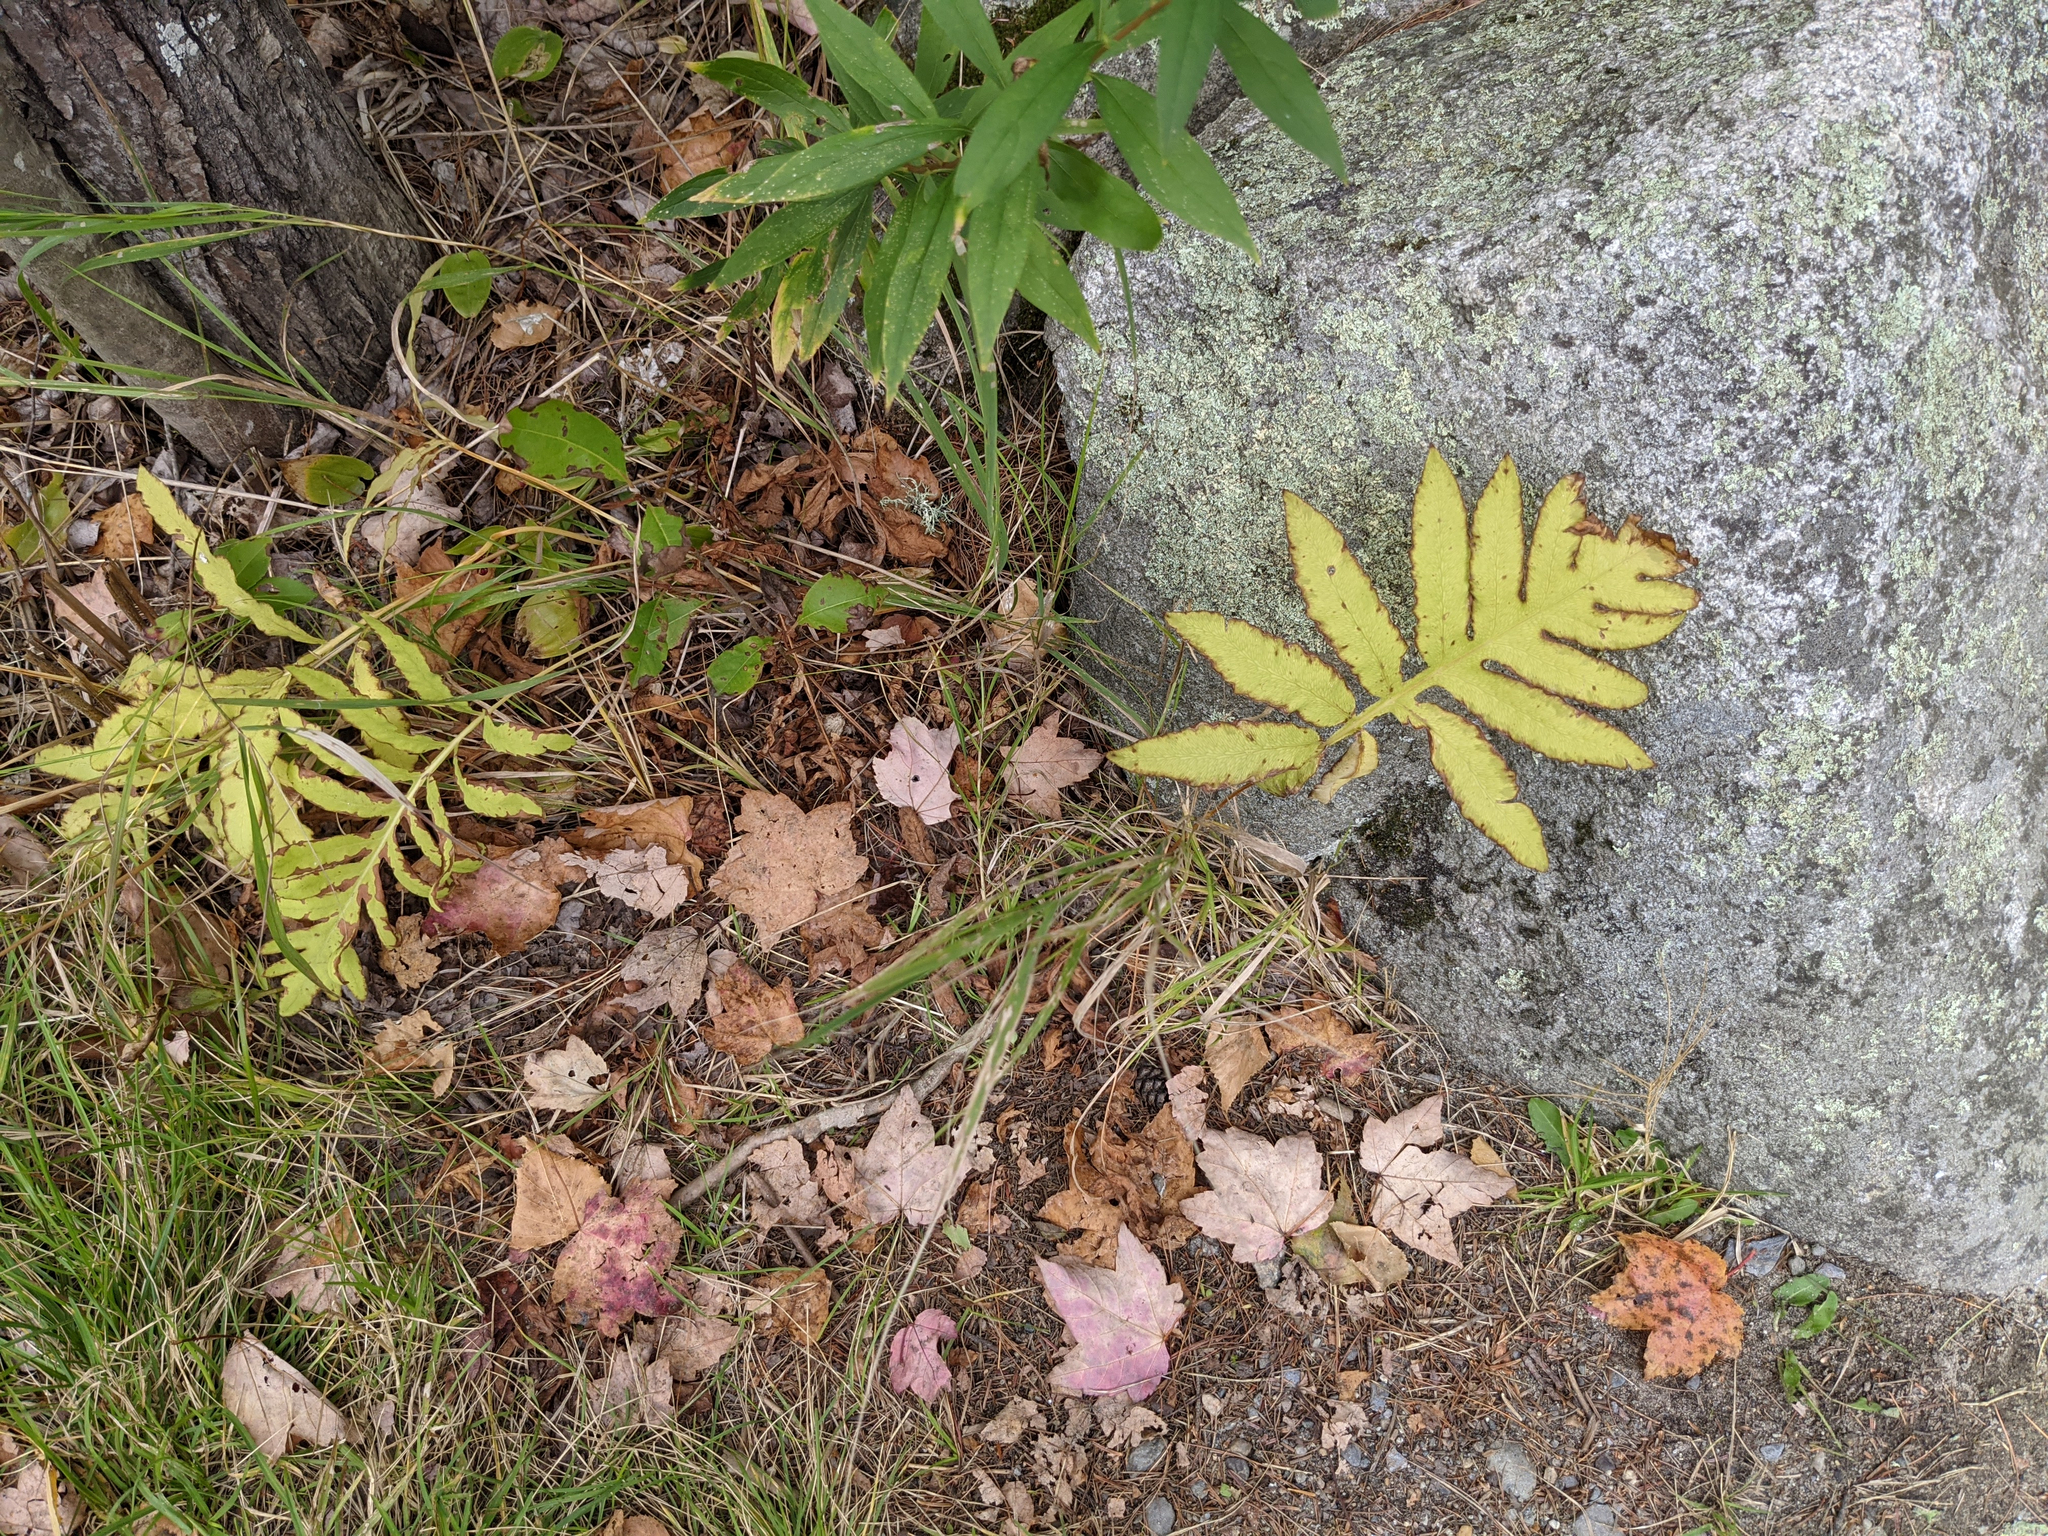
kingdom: Plantae
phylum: Tracheophyta
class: Polypodiopsida
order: Polypodiales
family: Onocleaceae
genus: Onoclea
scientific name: Onoclea sensibilis
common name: Sensitive fern
